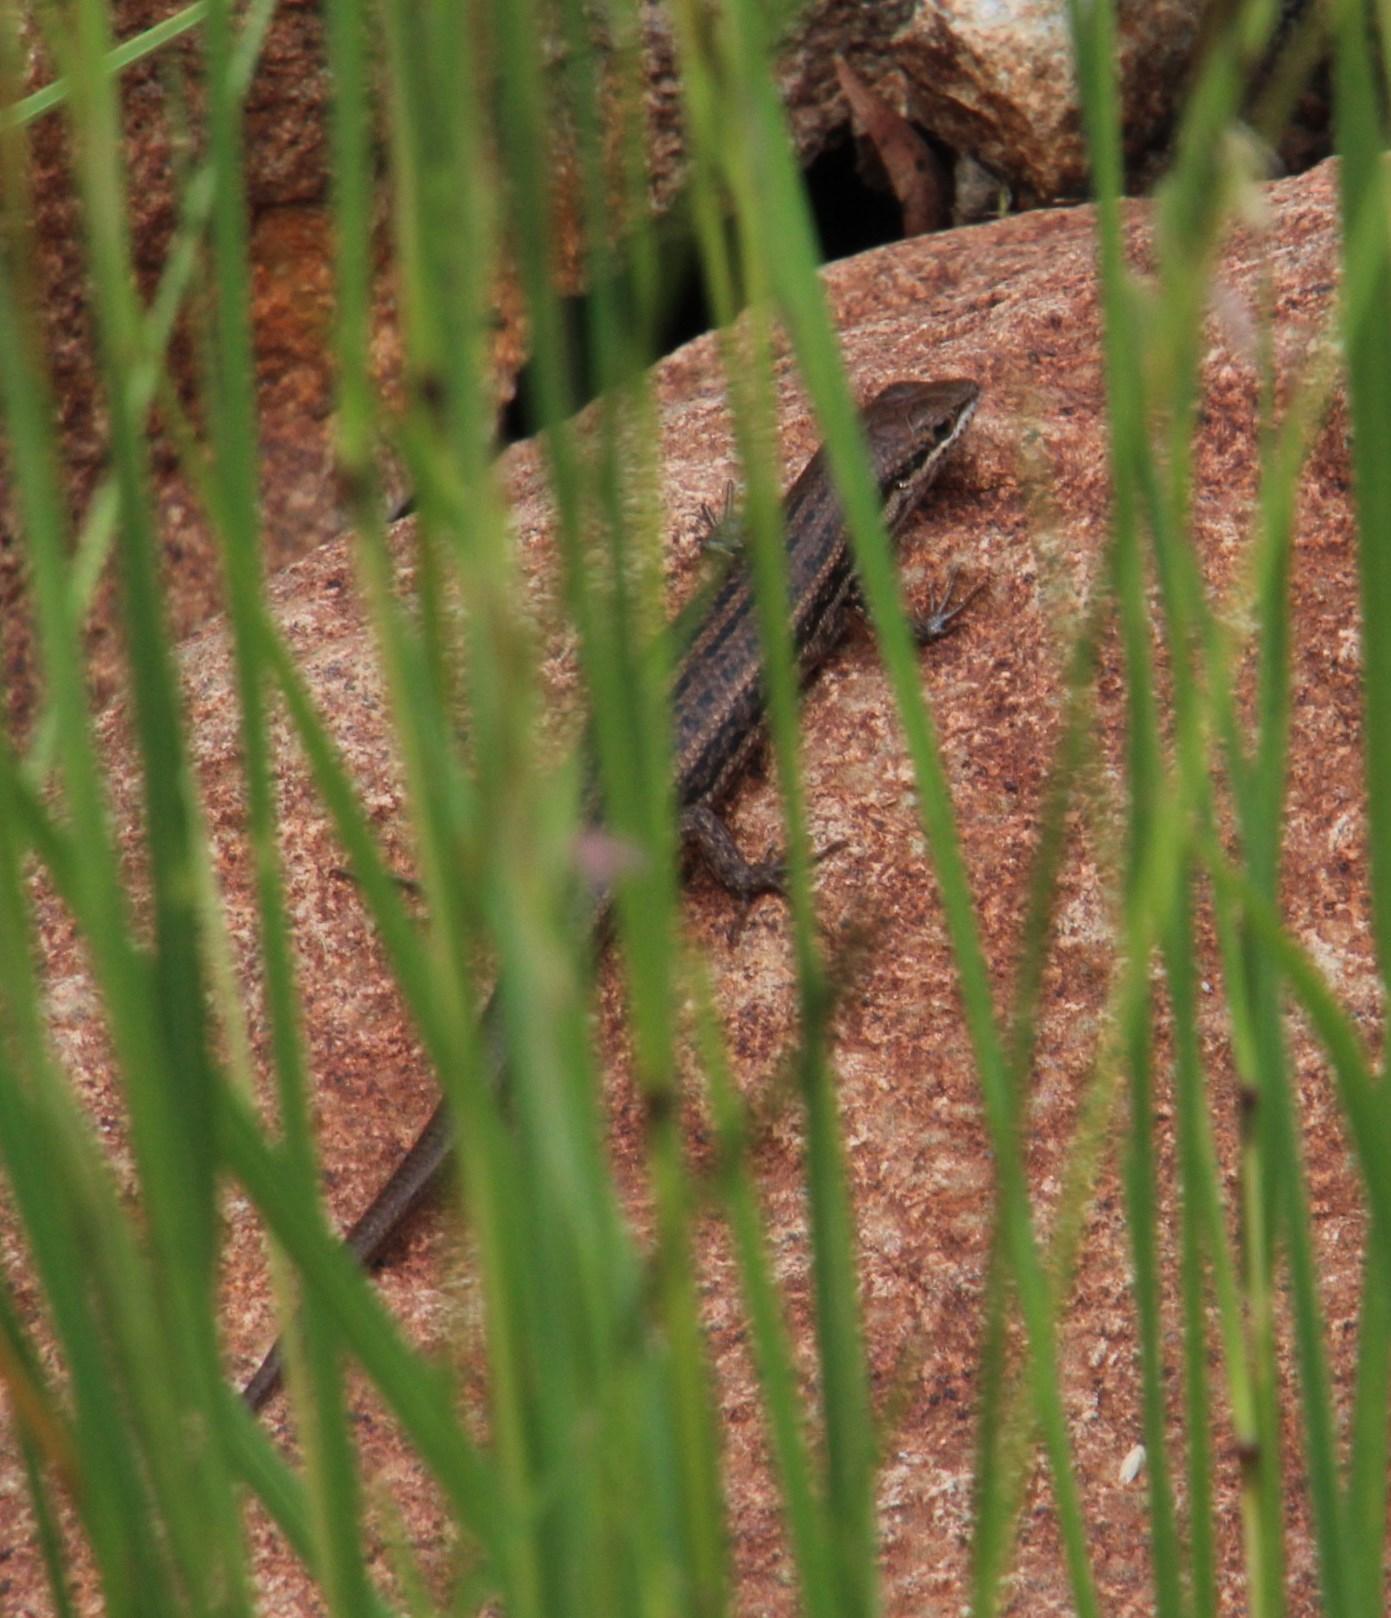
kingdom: Animalia
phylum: Chordata
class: Squamata
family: Scincidae
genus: Trachylepis
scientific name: Trachylepis variegata
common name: Variegated skink
